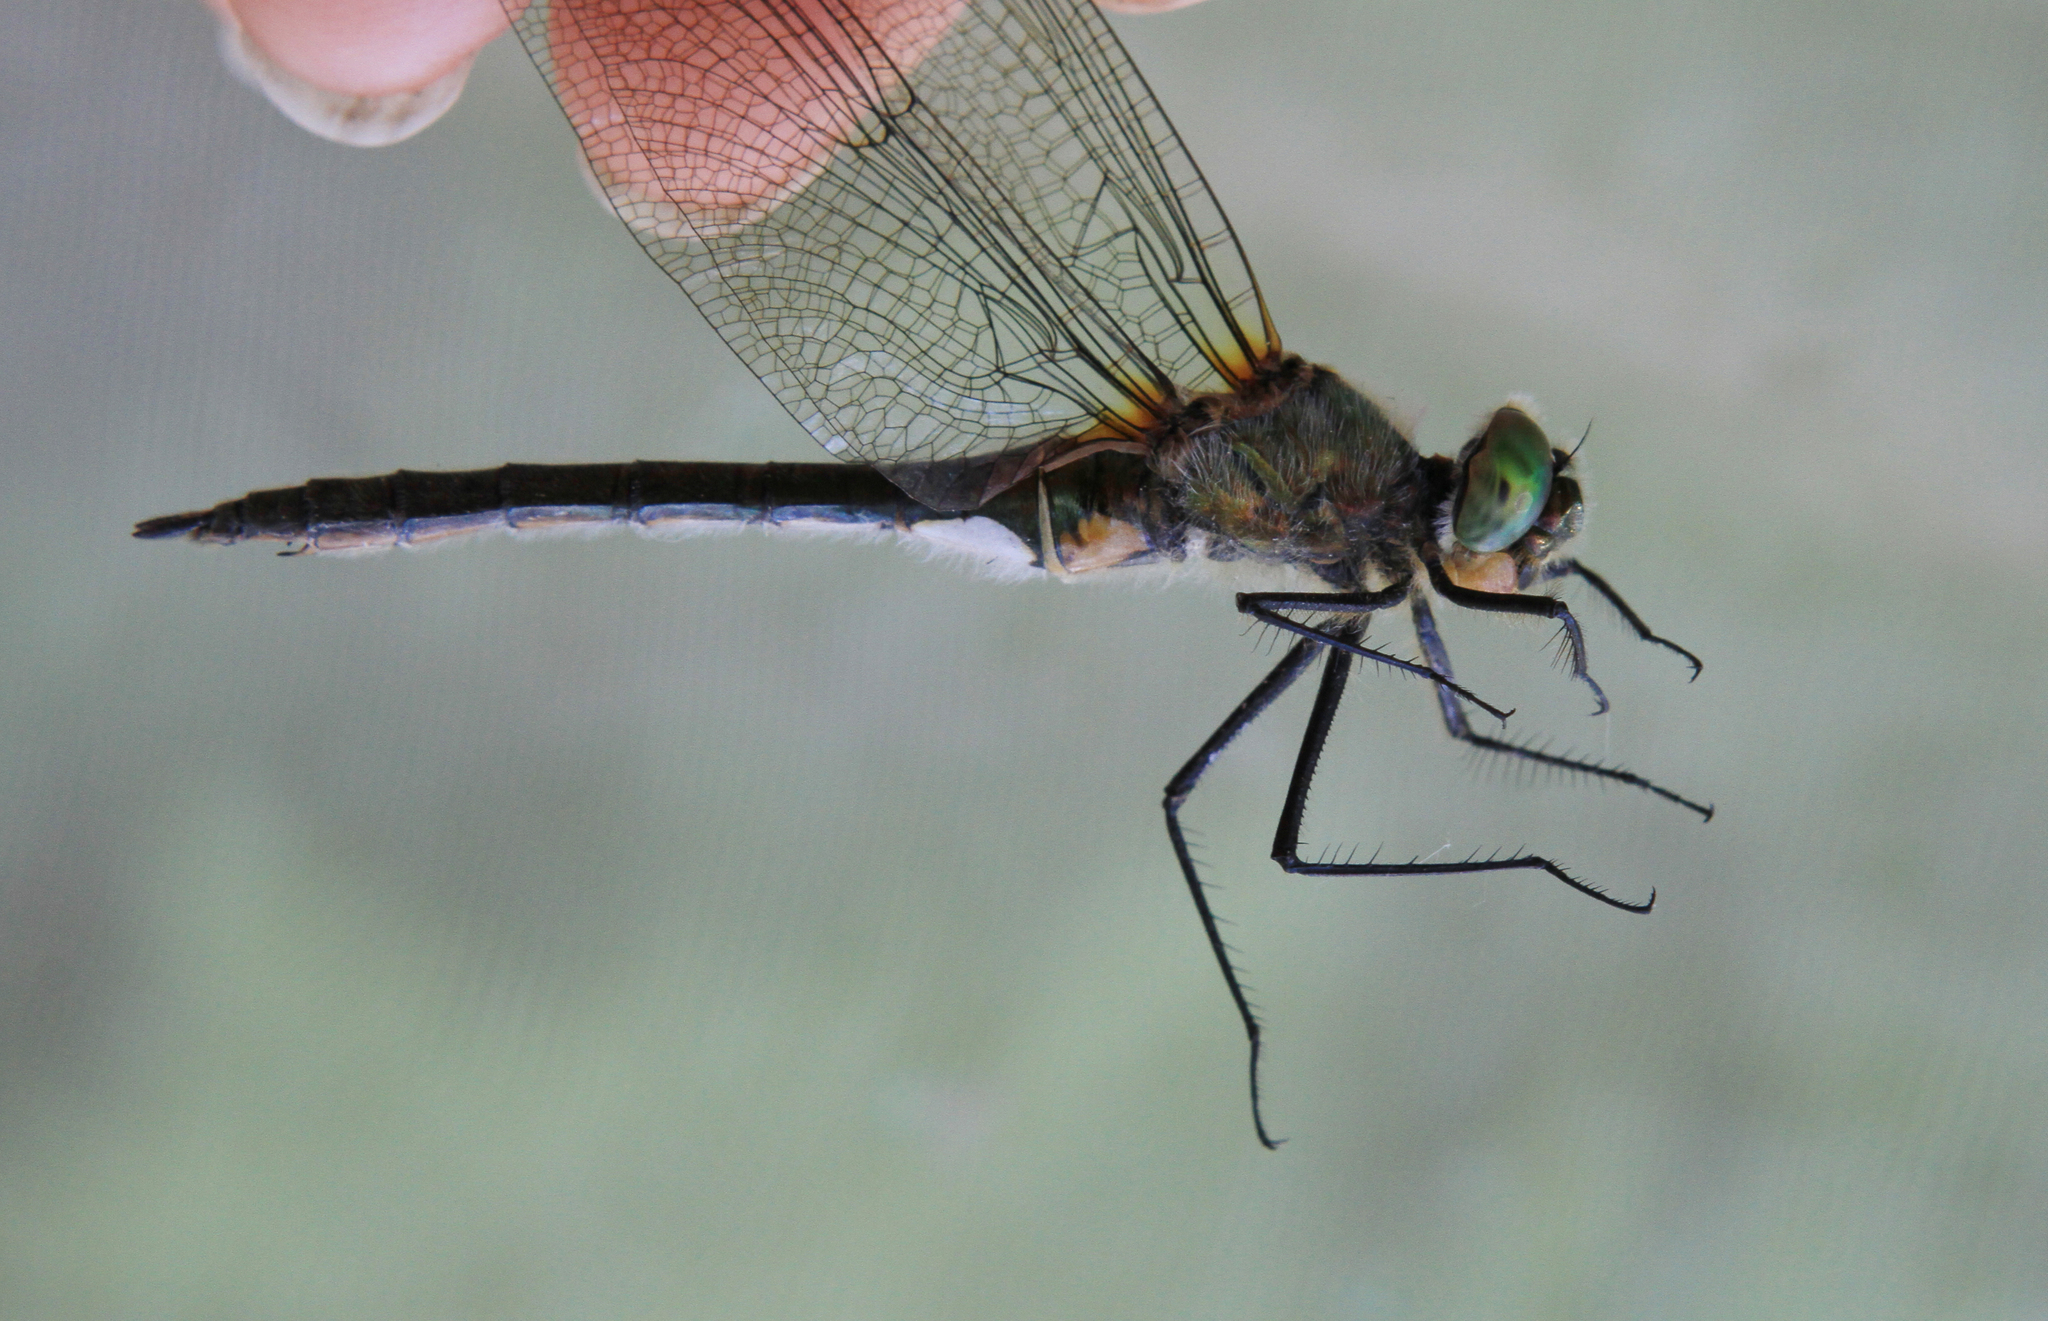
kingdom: Animalia
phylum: Arthropoda
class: Insecta
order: Odonata
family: Corduliidae
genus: Cordulia
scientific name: Cordulia aenea
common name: Downy emerald
